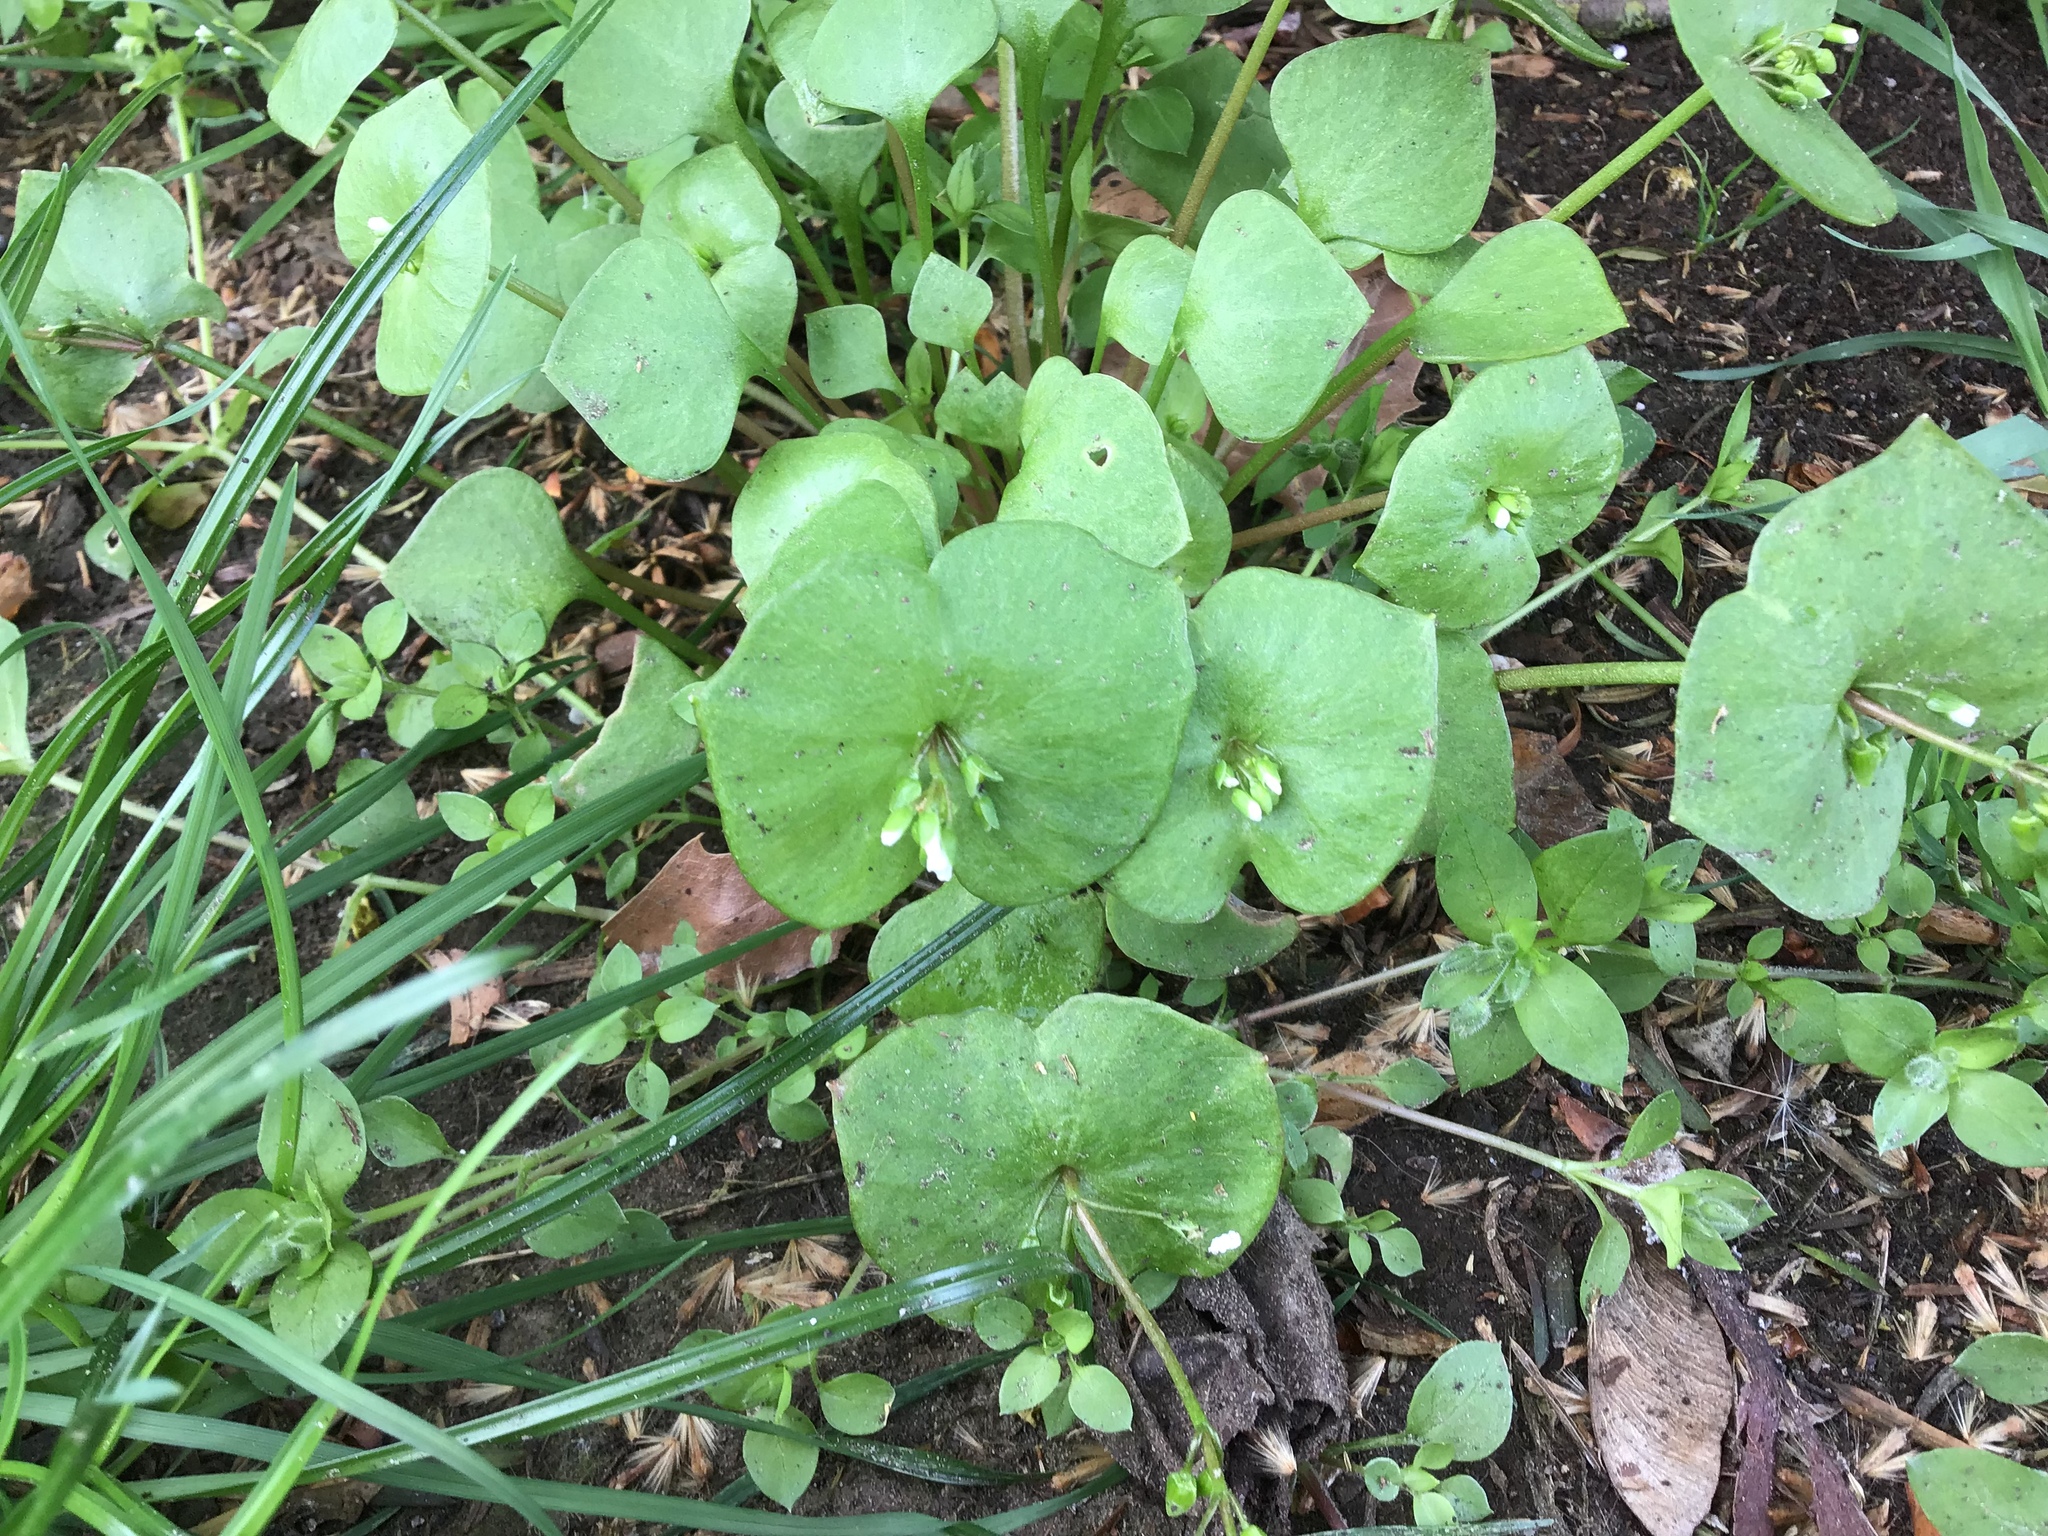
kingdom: Plantae
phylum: Tracheophyta
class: Magnoliopsida
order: Caryophyllales
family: Montiaceae
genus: Claytonia
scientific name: Claytonia perfoliata
